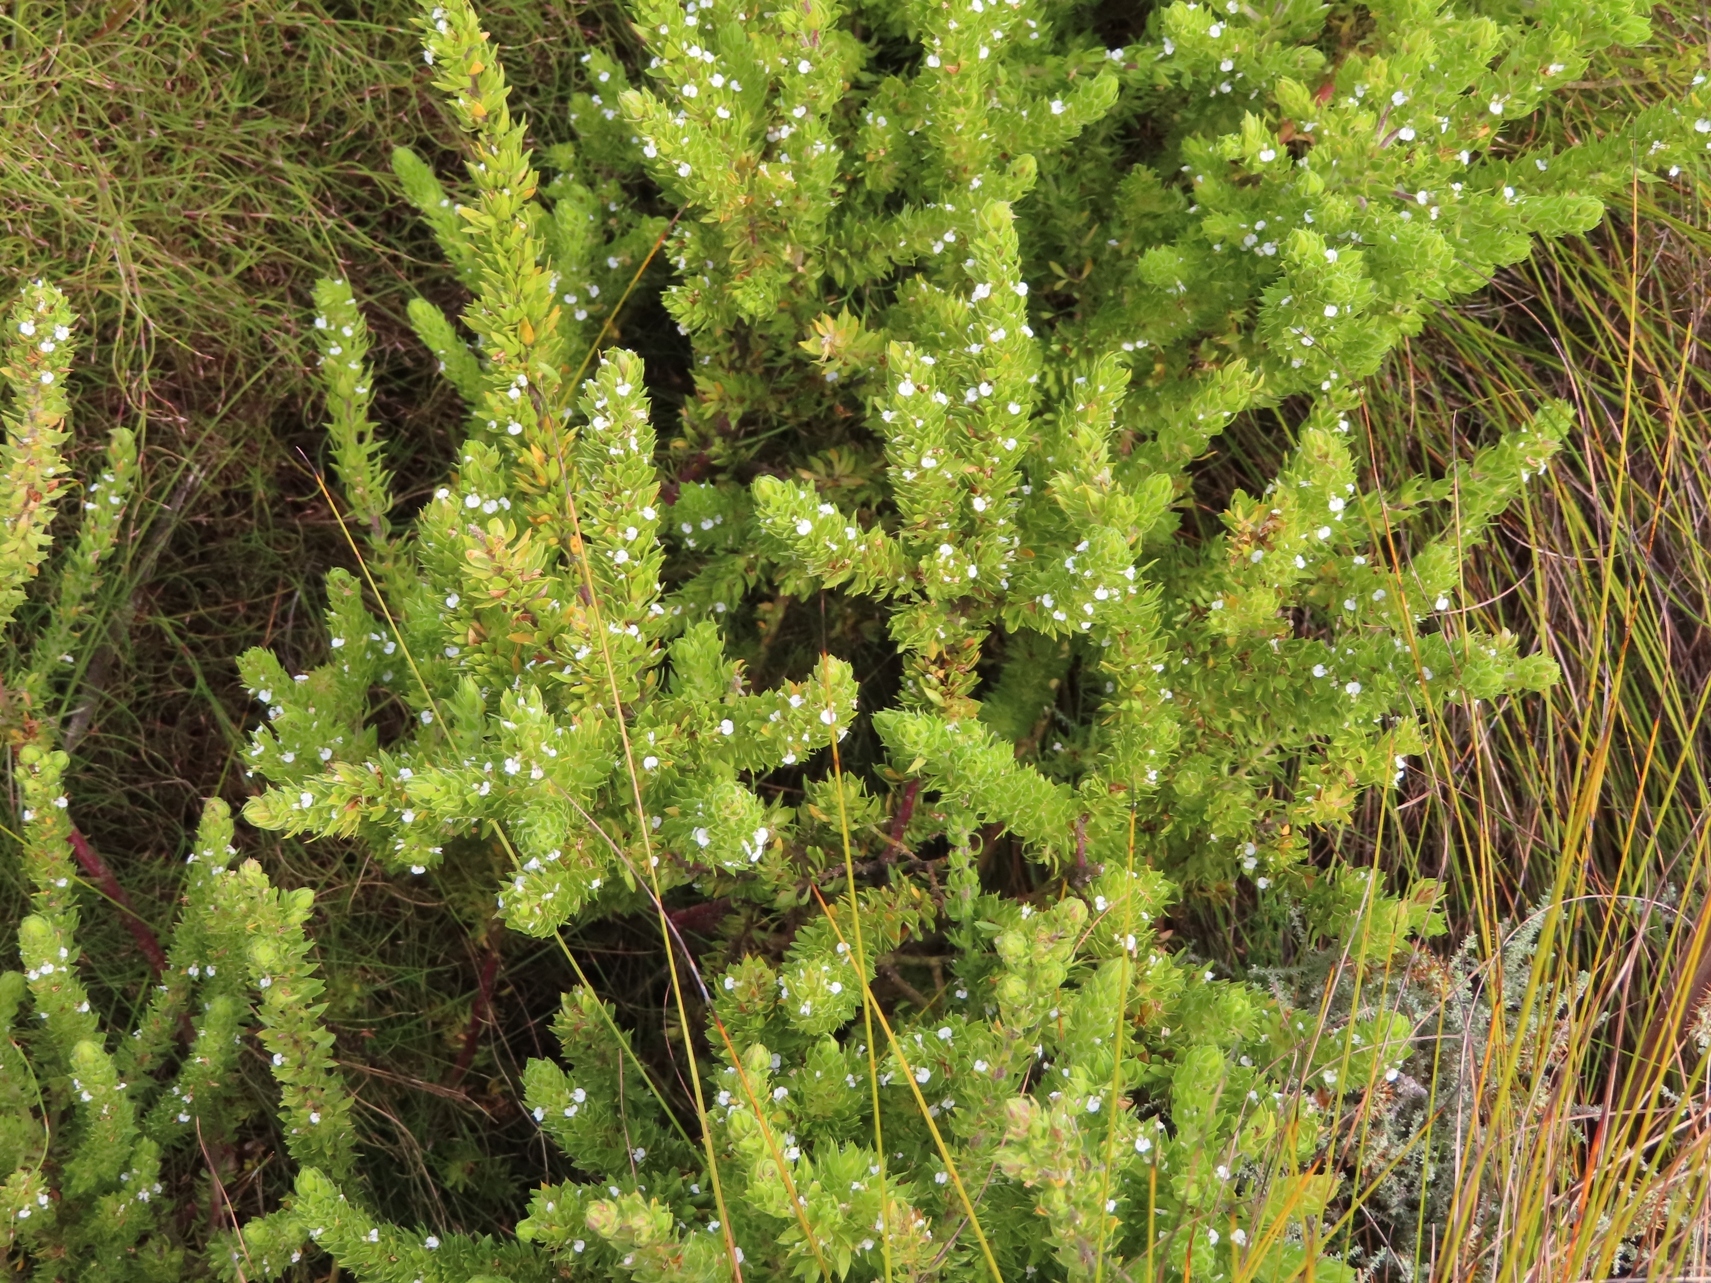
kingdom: Plantae
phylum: Tracheophyta
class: Magnoliopsida
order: Fabales
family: Polygalaceae
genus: Muraltia
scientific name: Muraltia alba
